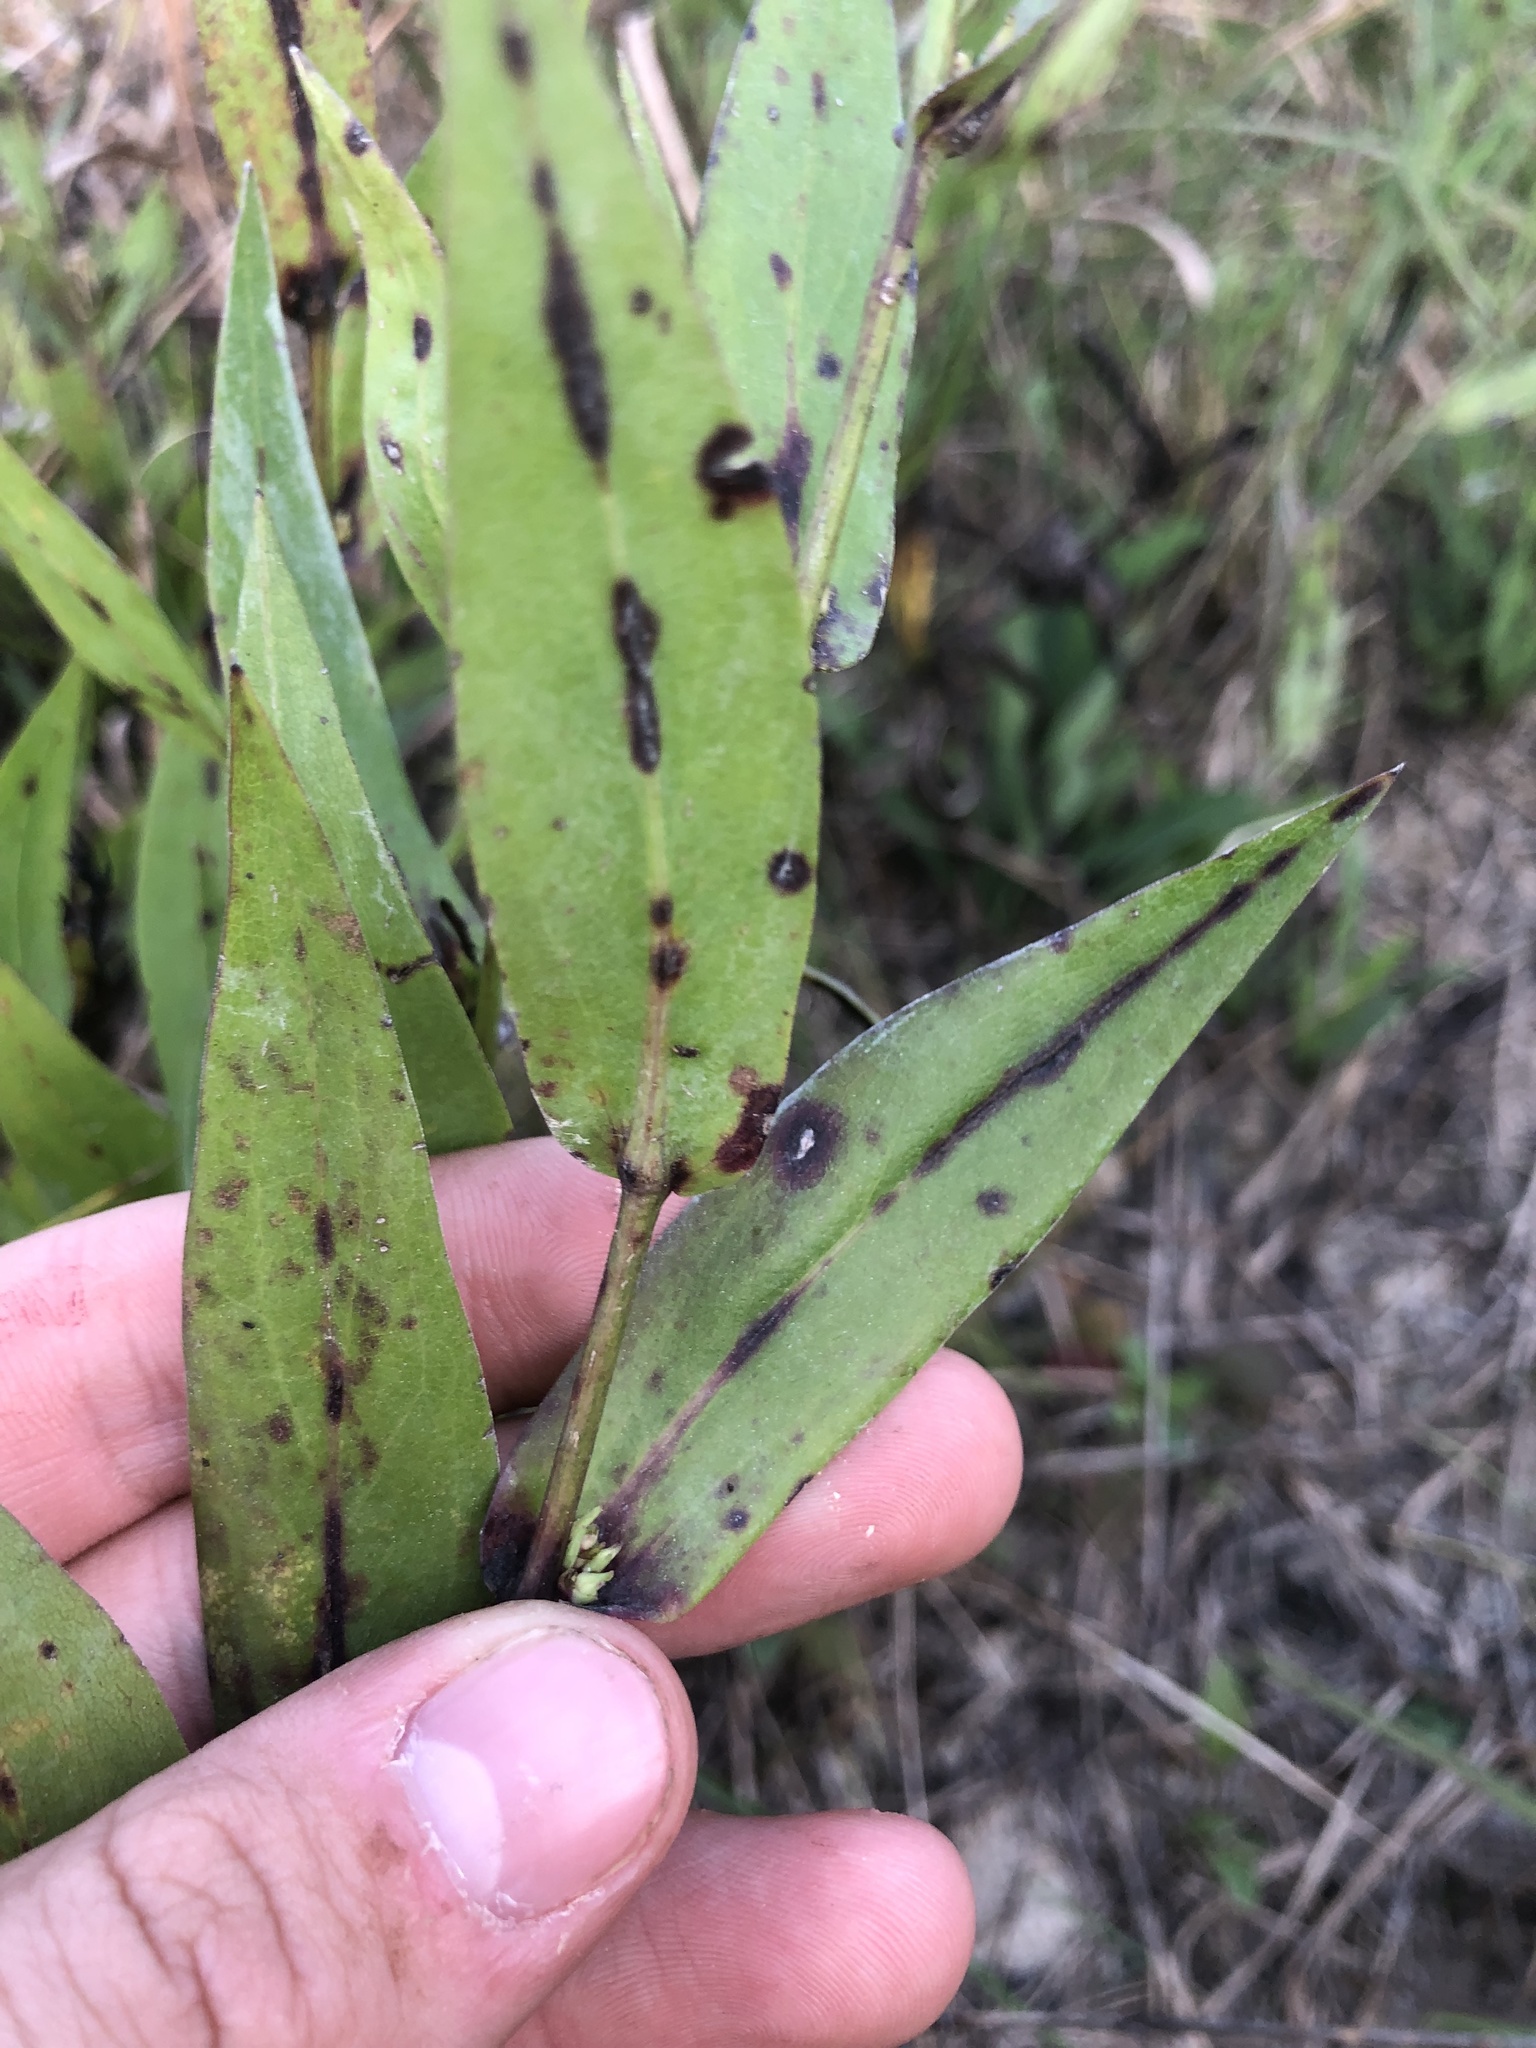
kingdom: Plantae
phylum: Tracheophyta
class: Magnoliopsida
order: Asterales
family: Asteraceae
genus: Symphyotrichum
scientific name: Symphyotrichum laeve
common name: Glaucous aster
